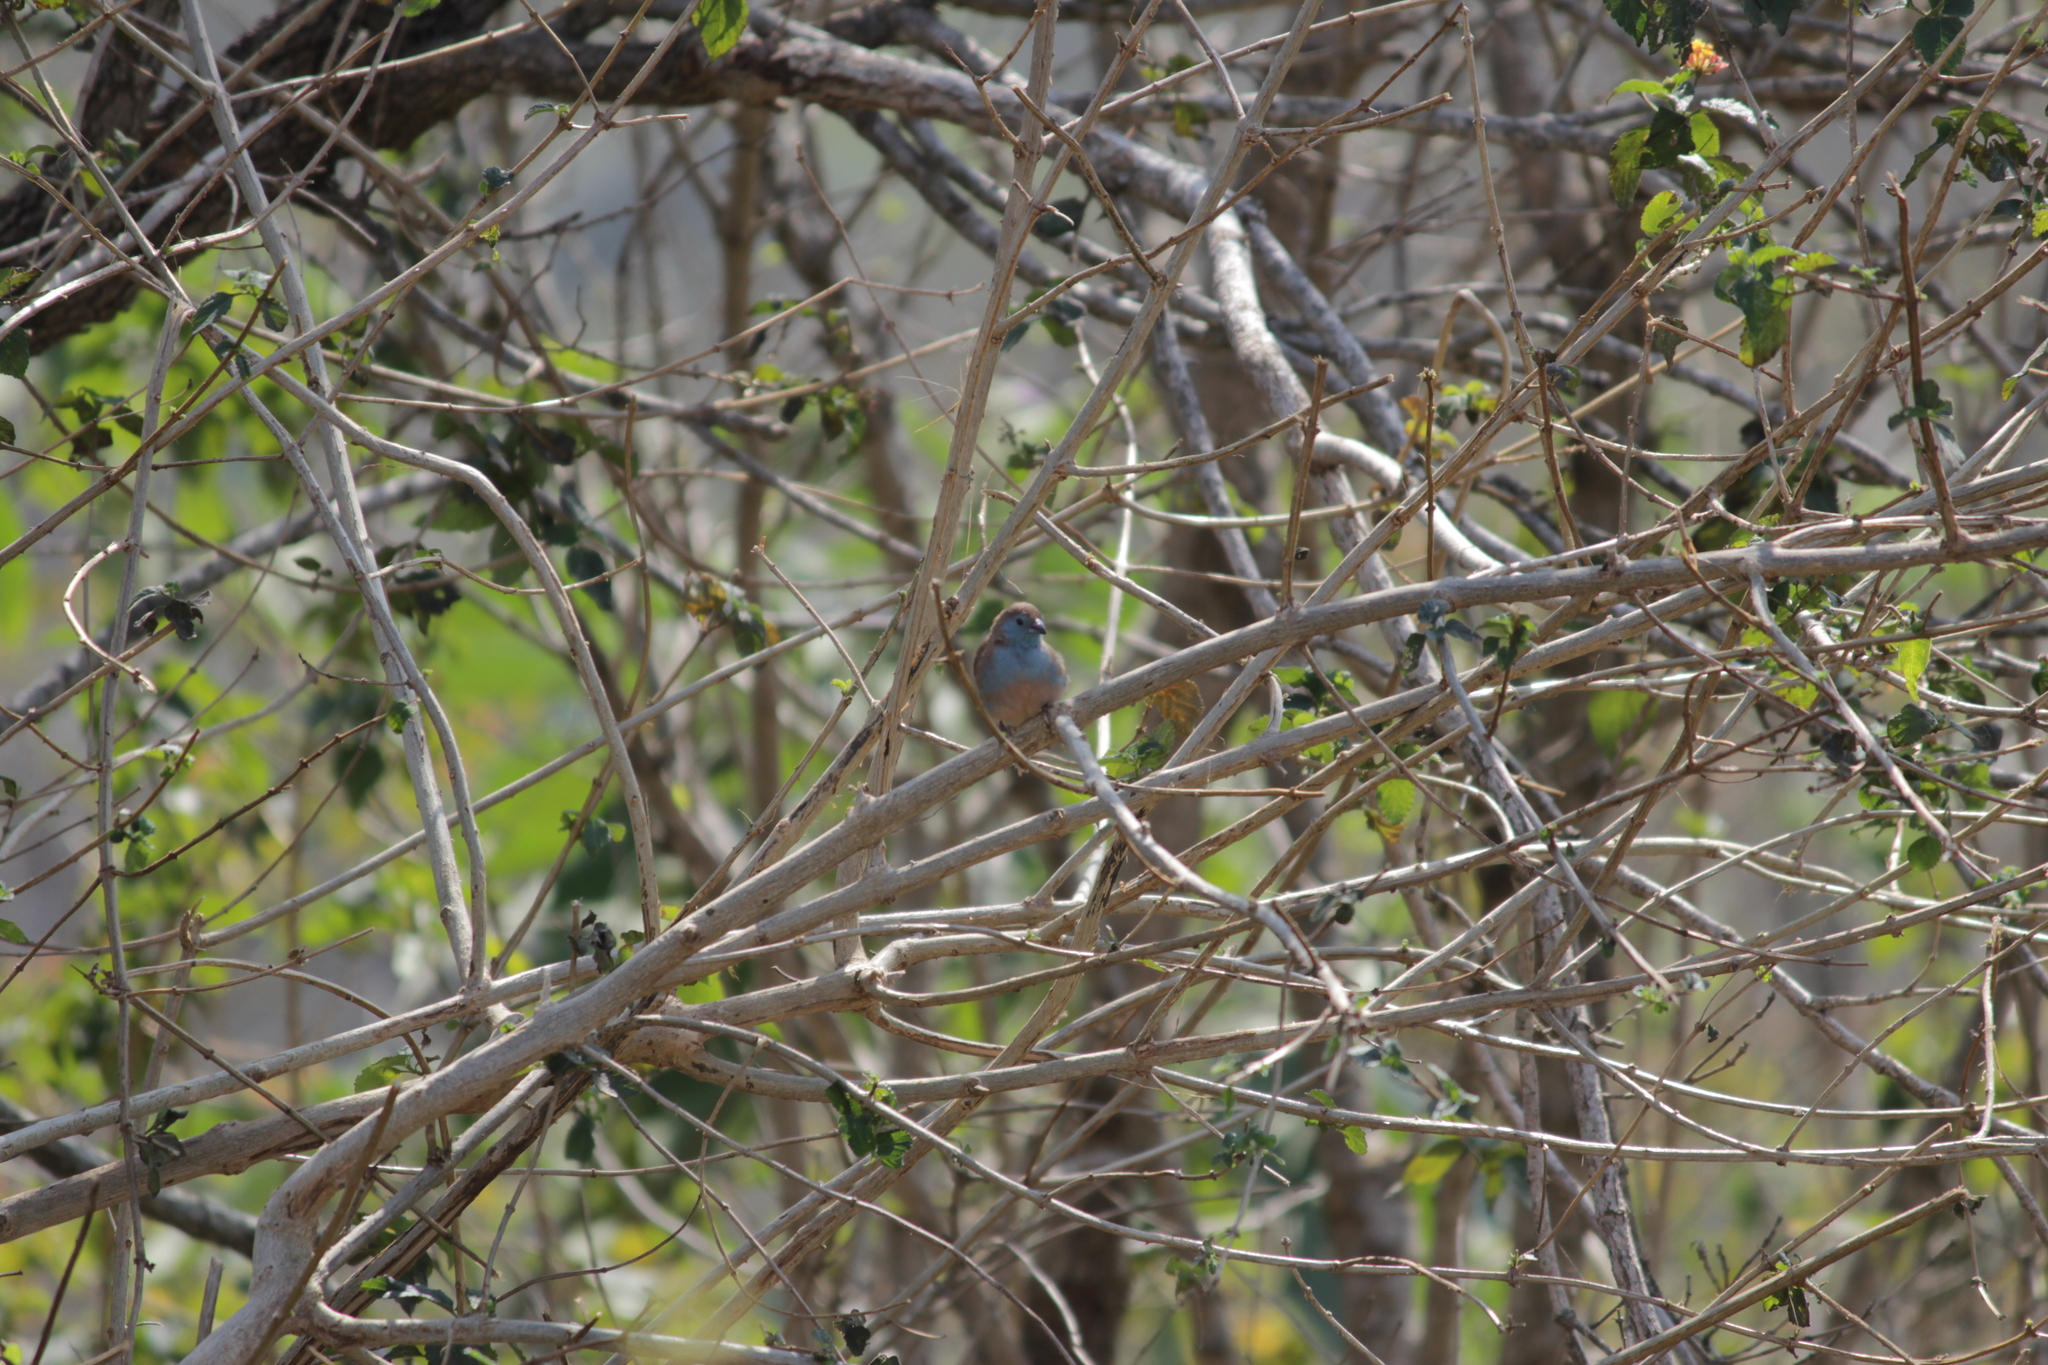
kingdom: Animalia
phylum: Chordata
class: Aves
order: Passeriformes
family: Estrildidae
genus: Uraeginthus
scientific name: Uraeginthus angolensis
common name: Blue waxbill
